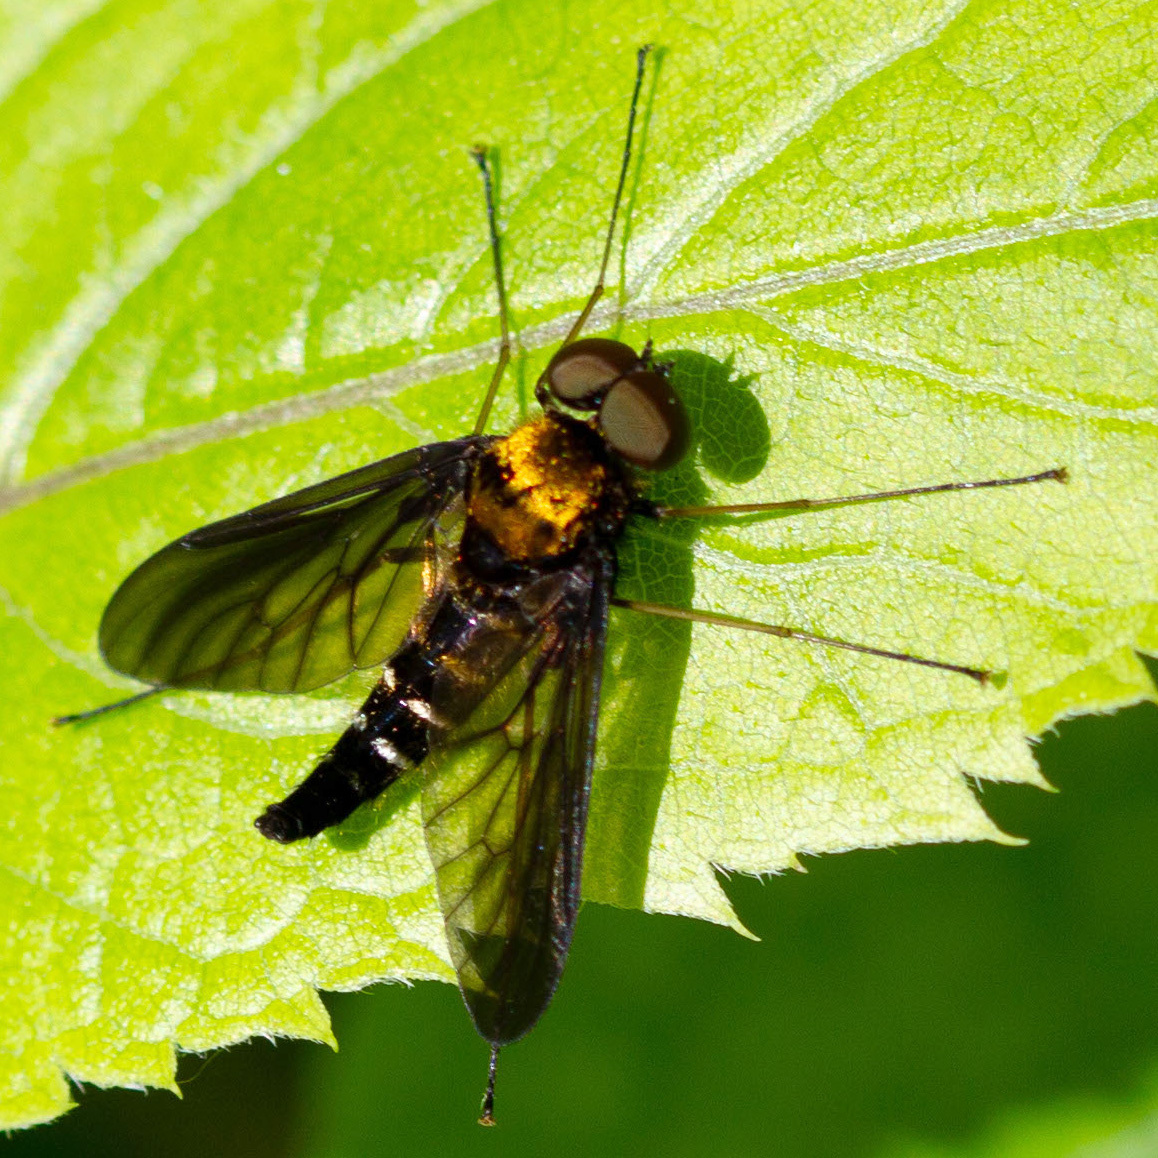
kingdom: Animalia
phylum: Arthropoda
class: Insecta
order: Diptera
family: Rhagionidae
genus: Chrysopilus
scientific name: Chrysopilus thoracicus
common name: Golden-backed snipe fly
